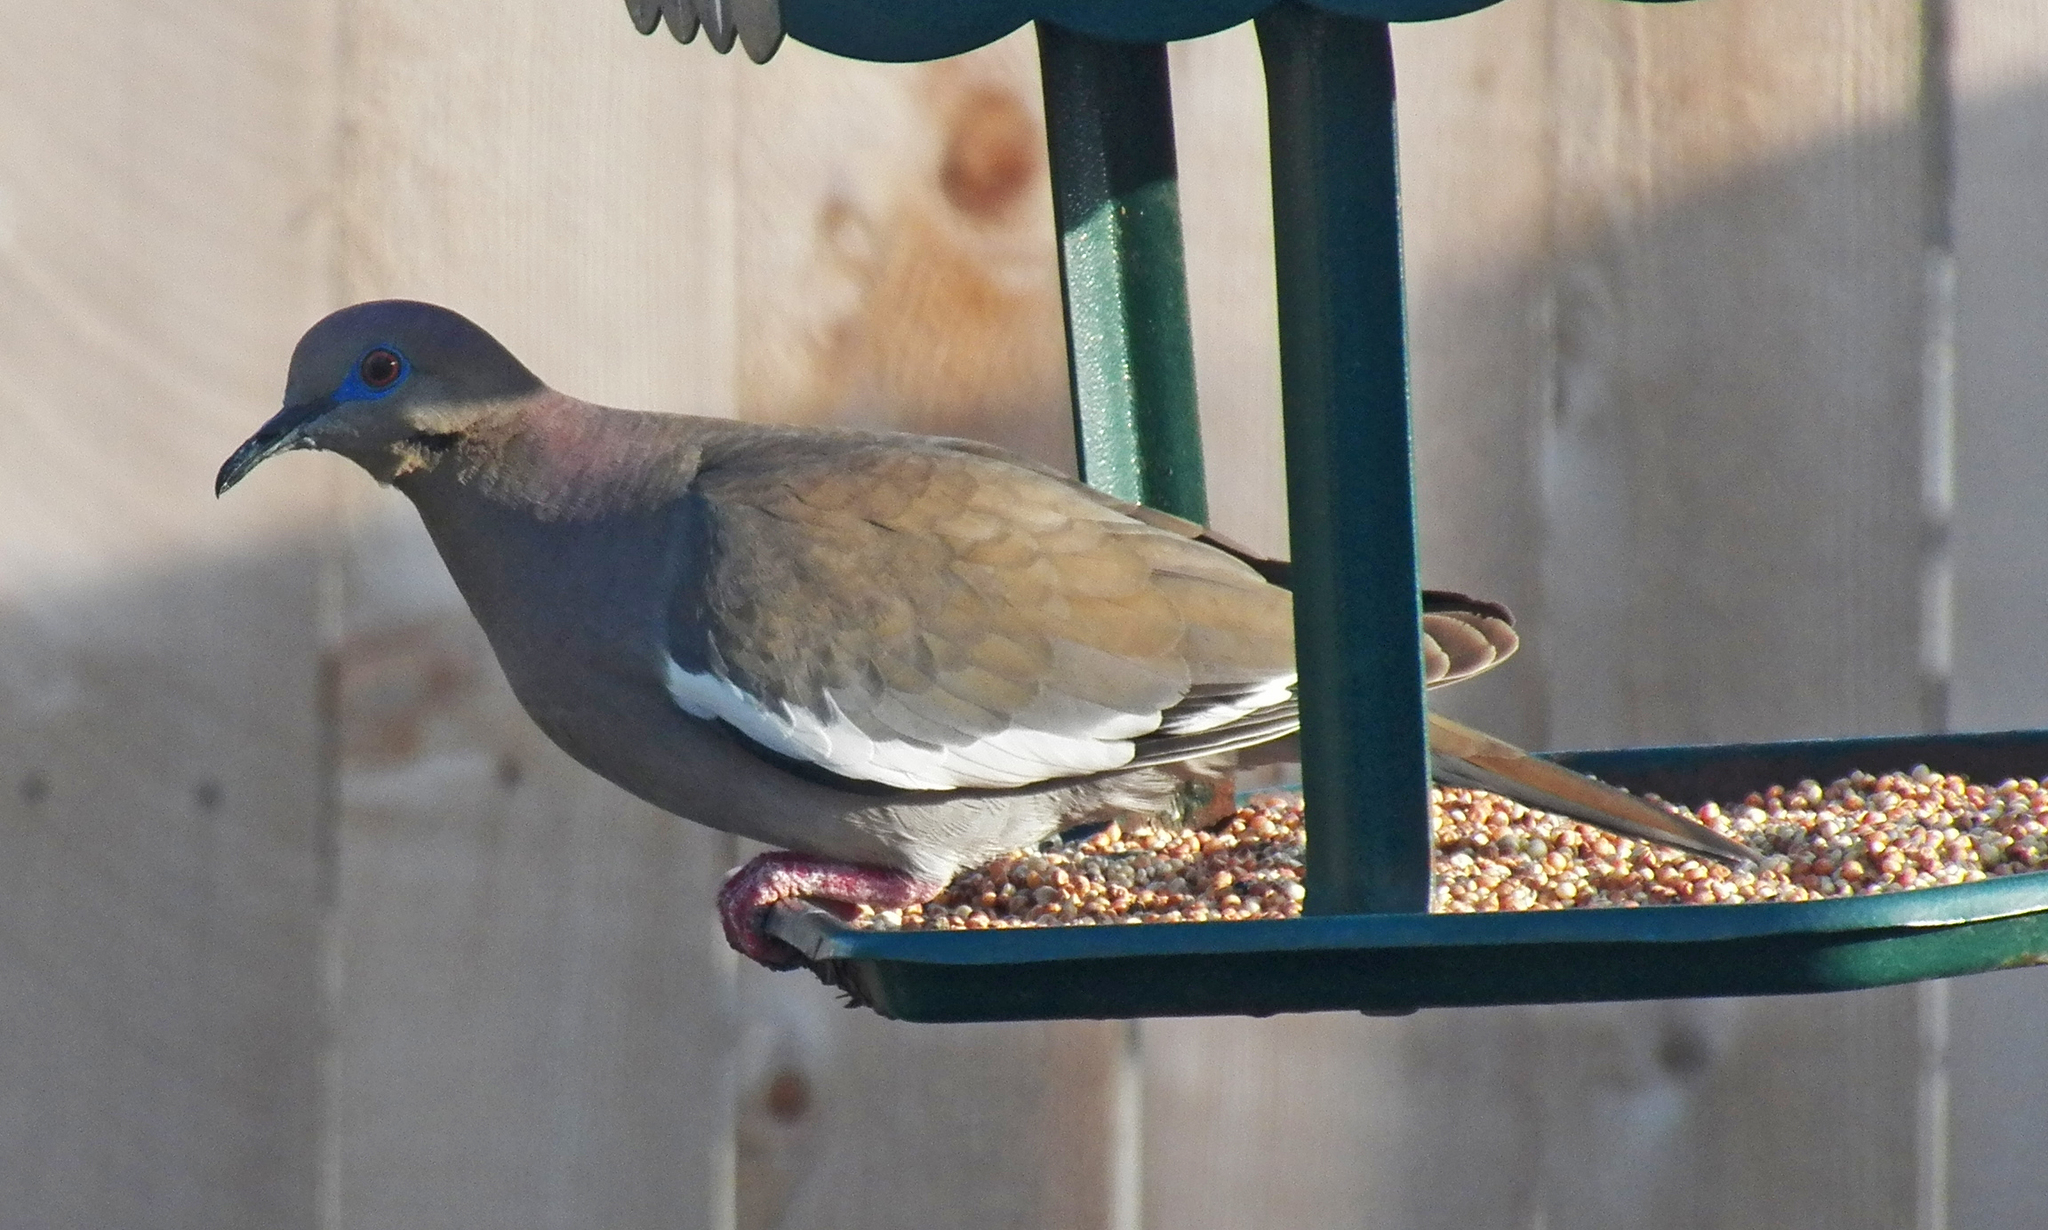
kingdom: Animalia
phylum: Chordata
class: Aves
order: Columbiformes
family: Columbidae
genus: Zenaida
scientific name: Zenaida asiatica
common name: White-winged dove
